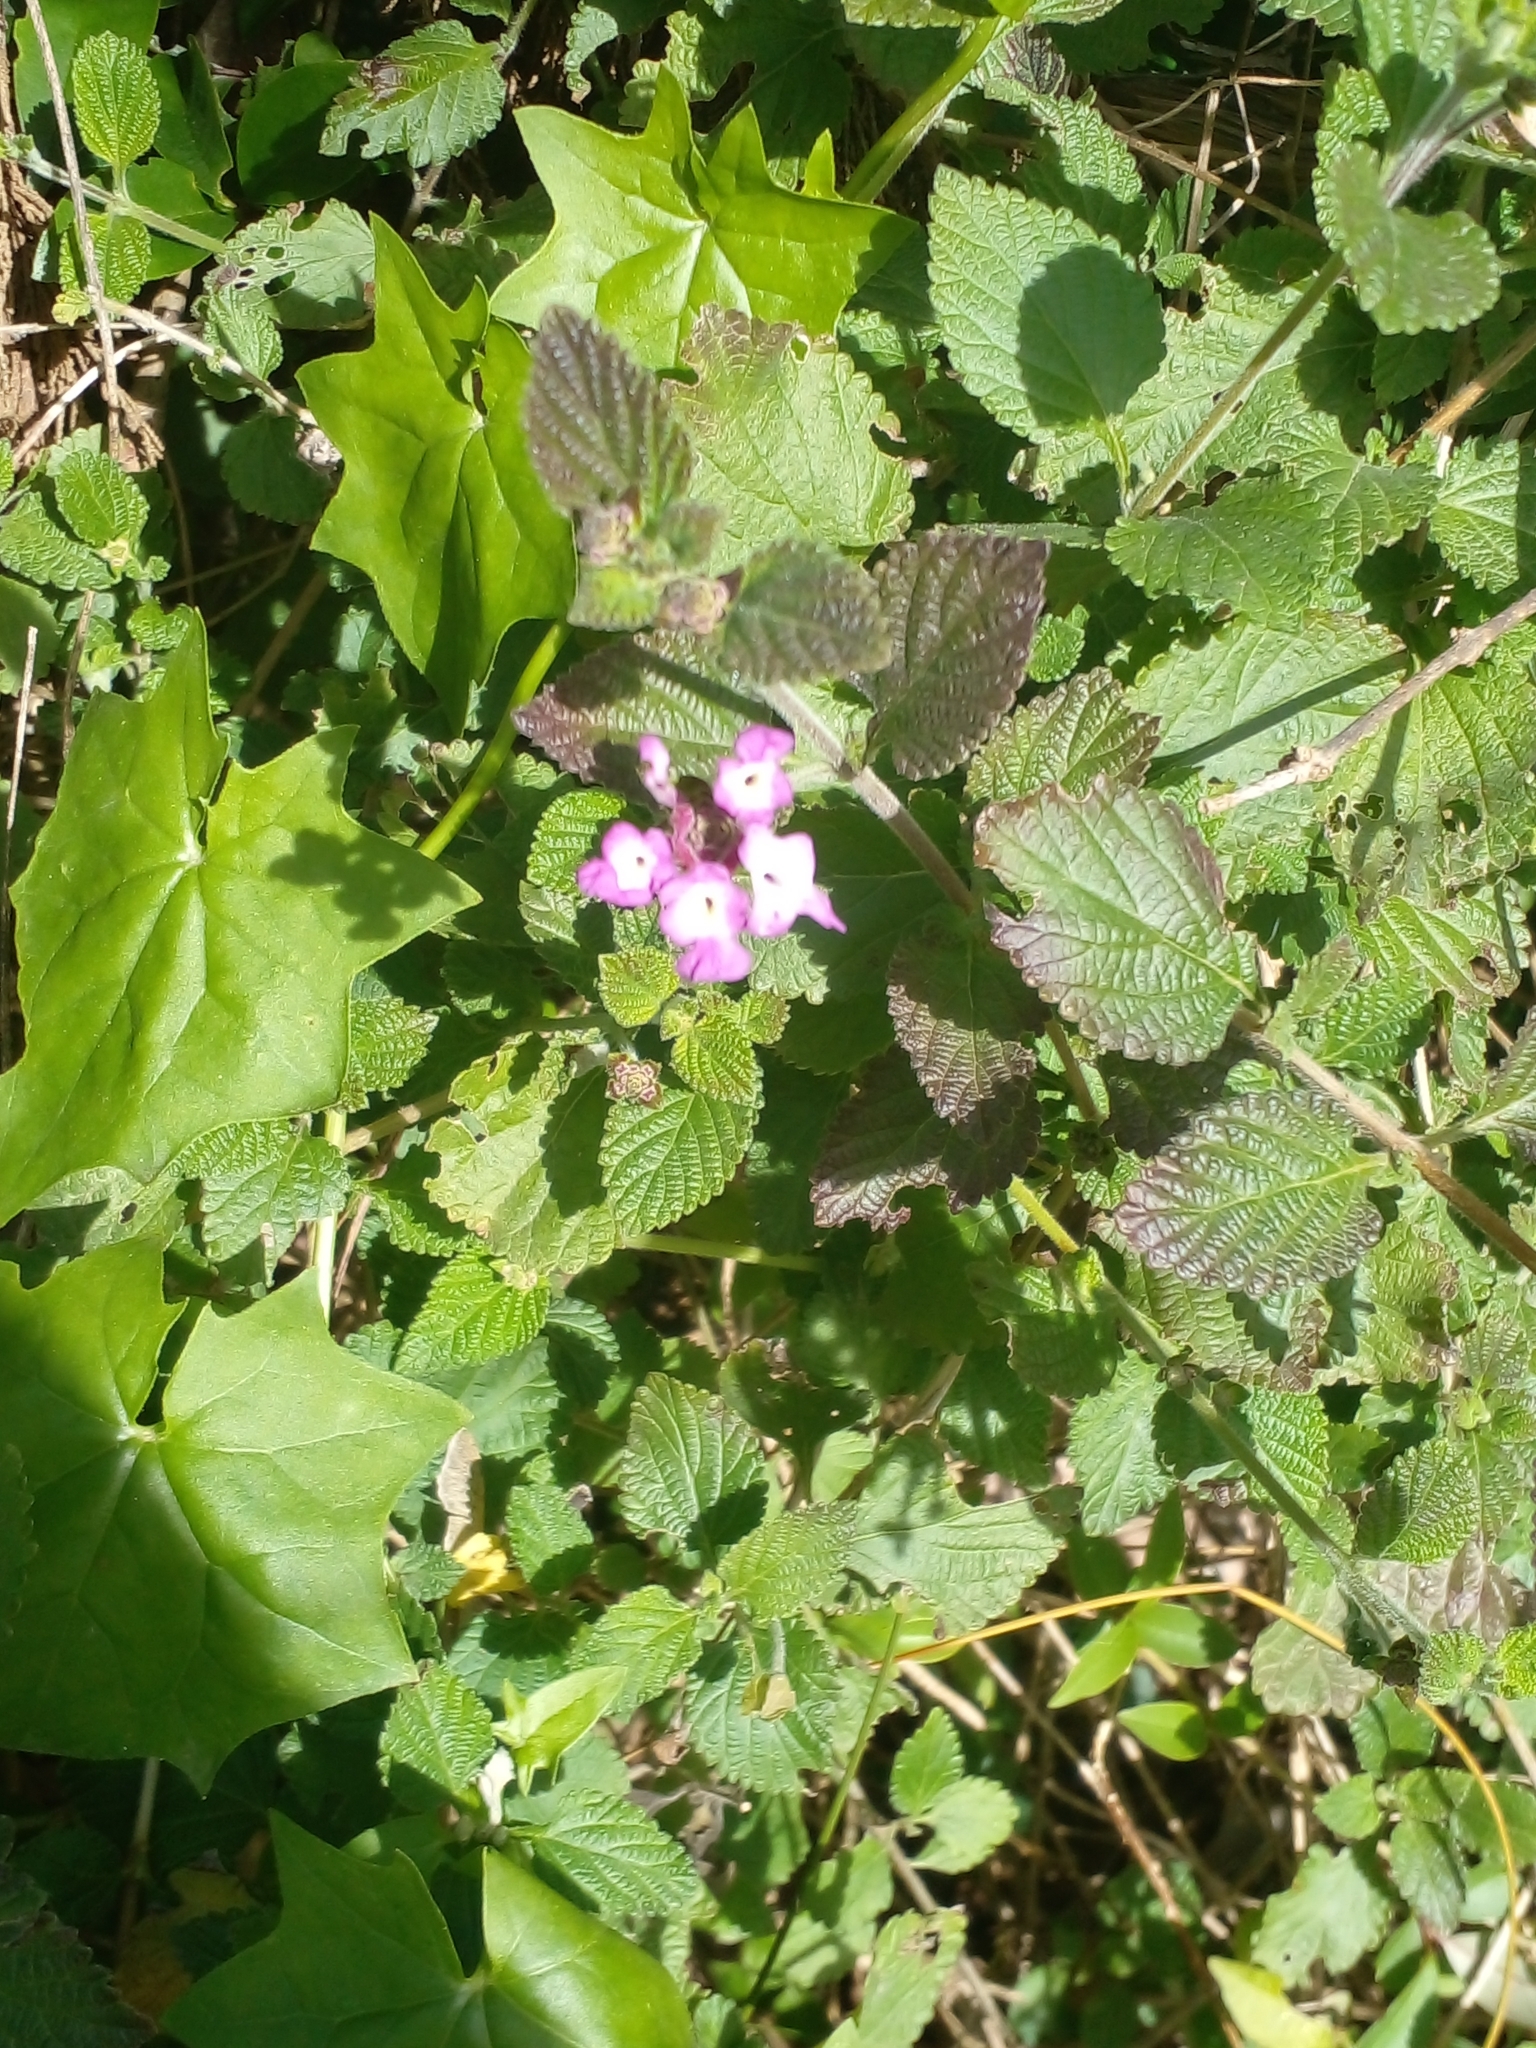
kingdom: Plantae
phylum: Tracheophyta
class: Magnoliopsida
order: Lamiales
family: Verbenaceae
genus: Lantana
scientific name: Lantana megapotamica
